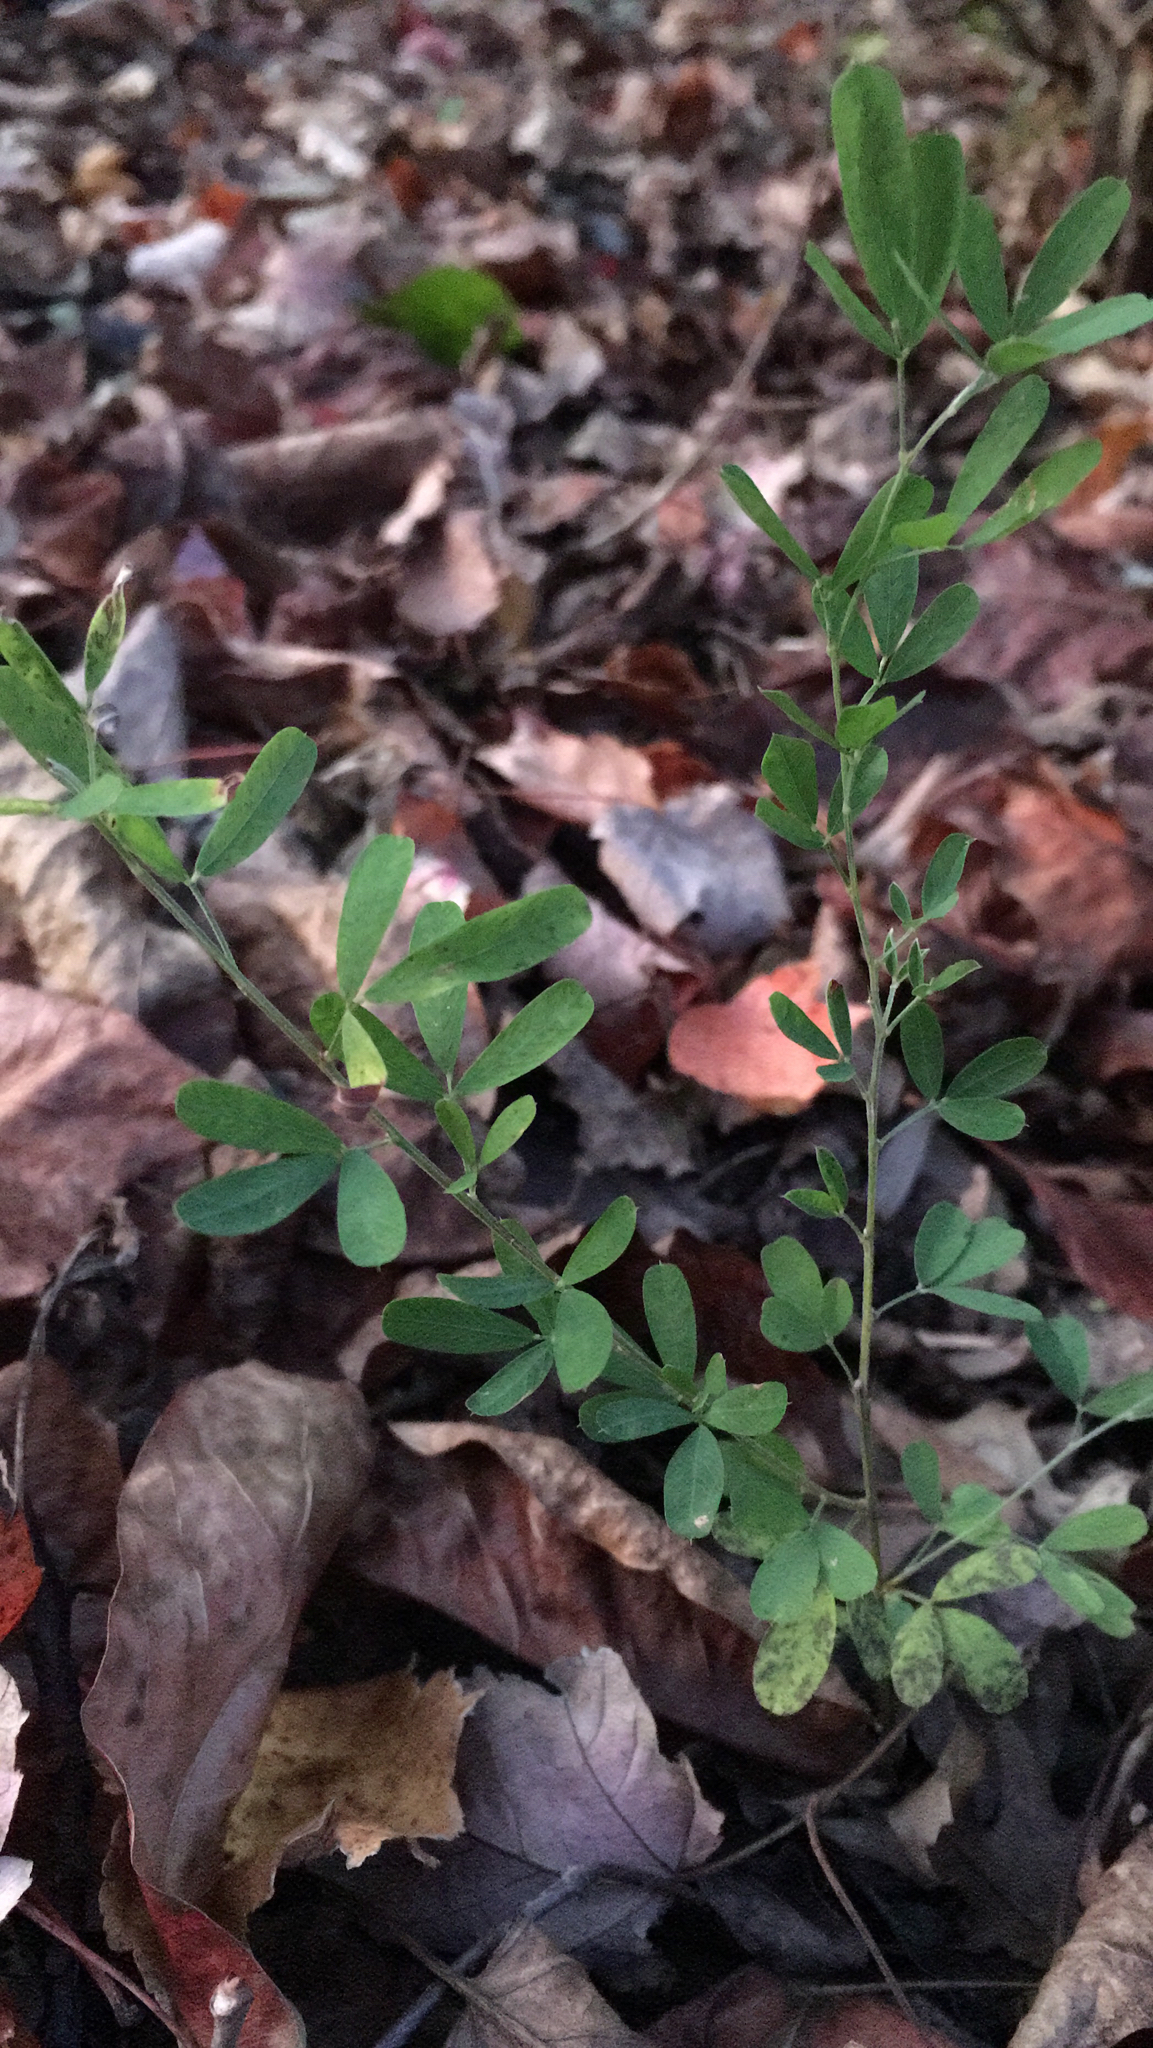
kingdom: Plantae
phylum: Tracheophyta
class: Magnoliopsida
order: Fabales
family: Fabaceae
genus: Lespedeza
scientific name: Lespedeza cuneata
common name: Chinese bush-clover
